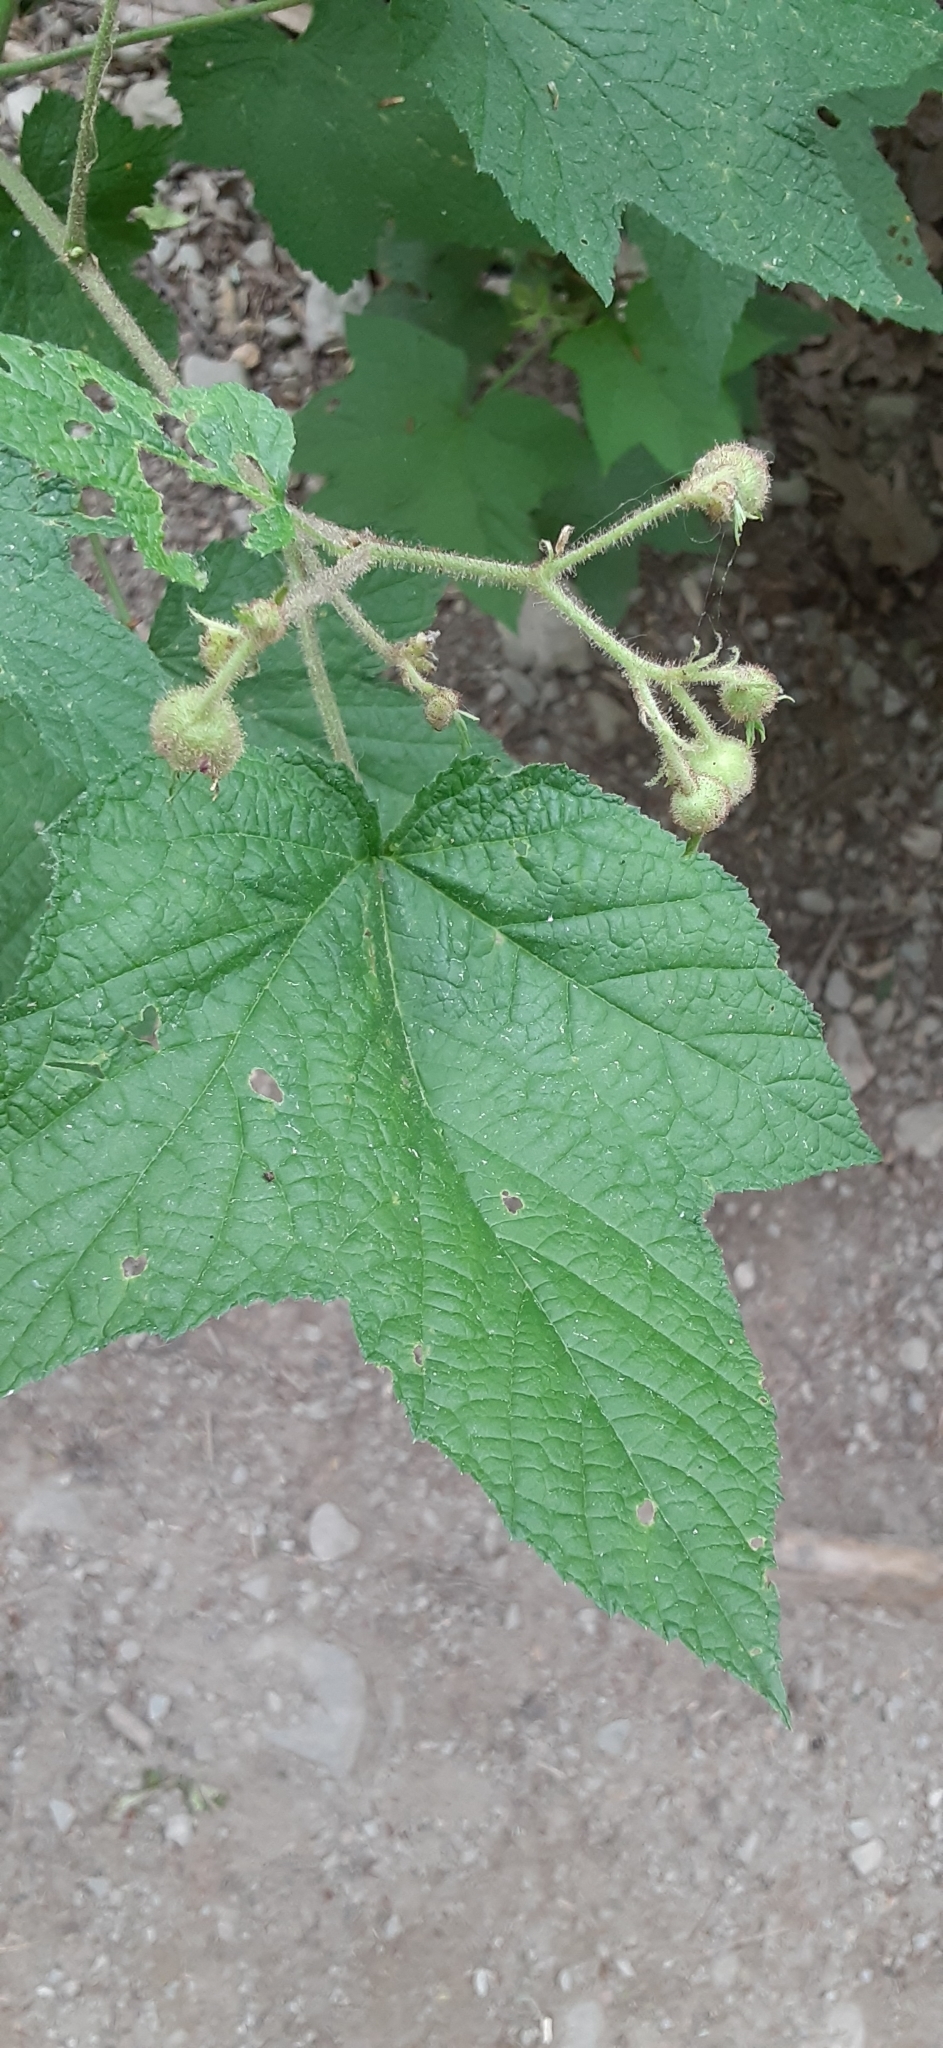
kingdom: Plantae
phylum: Tracheophyta
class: Magnoliopsida
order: Rosales
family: Rosaceae
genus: Rubus
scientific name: Rubus odoratus
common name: Purple-flowered raspberry
